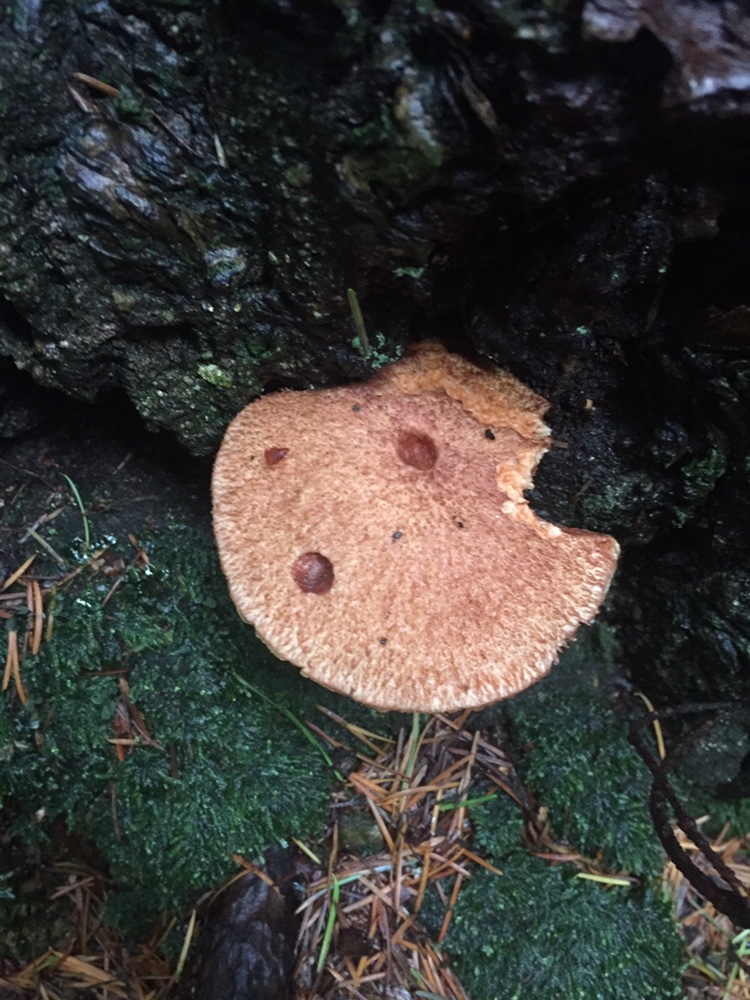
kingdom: Fungi
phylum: Basidiomycota
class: Agaricomycetes
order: Boletales
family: Suillaceae
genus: Suillus
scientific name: Suillus lakei
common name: Western painted suillus
